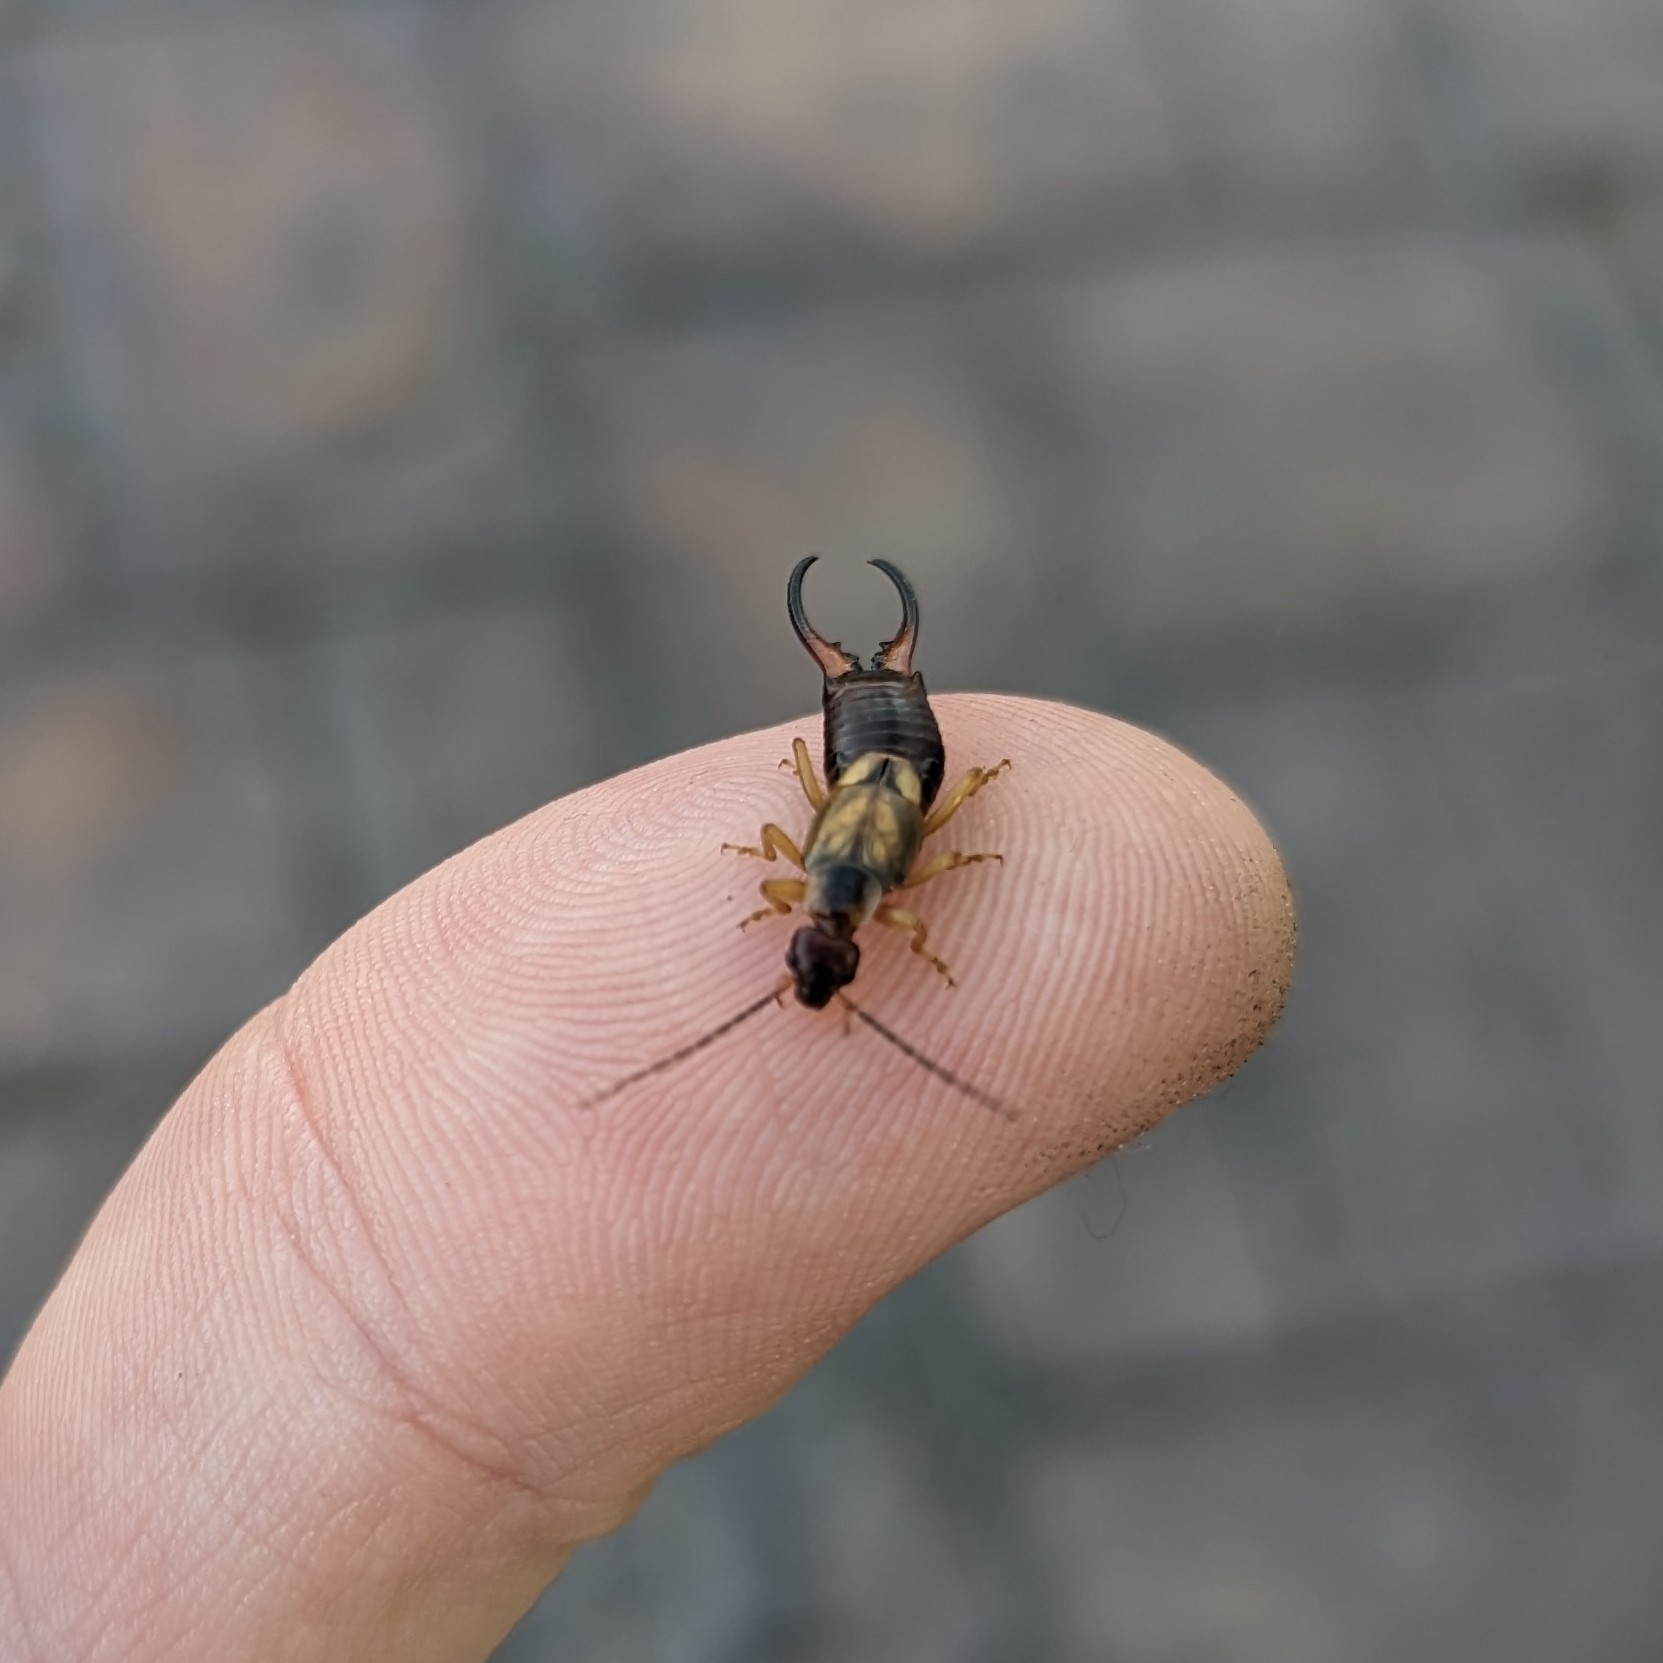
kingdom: Animalia
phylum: Arthropoda
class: Insecta
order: Dermaptera
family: Forficulidae
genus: Forficula
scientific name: Forficula dentata
